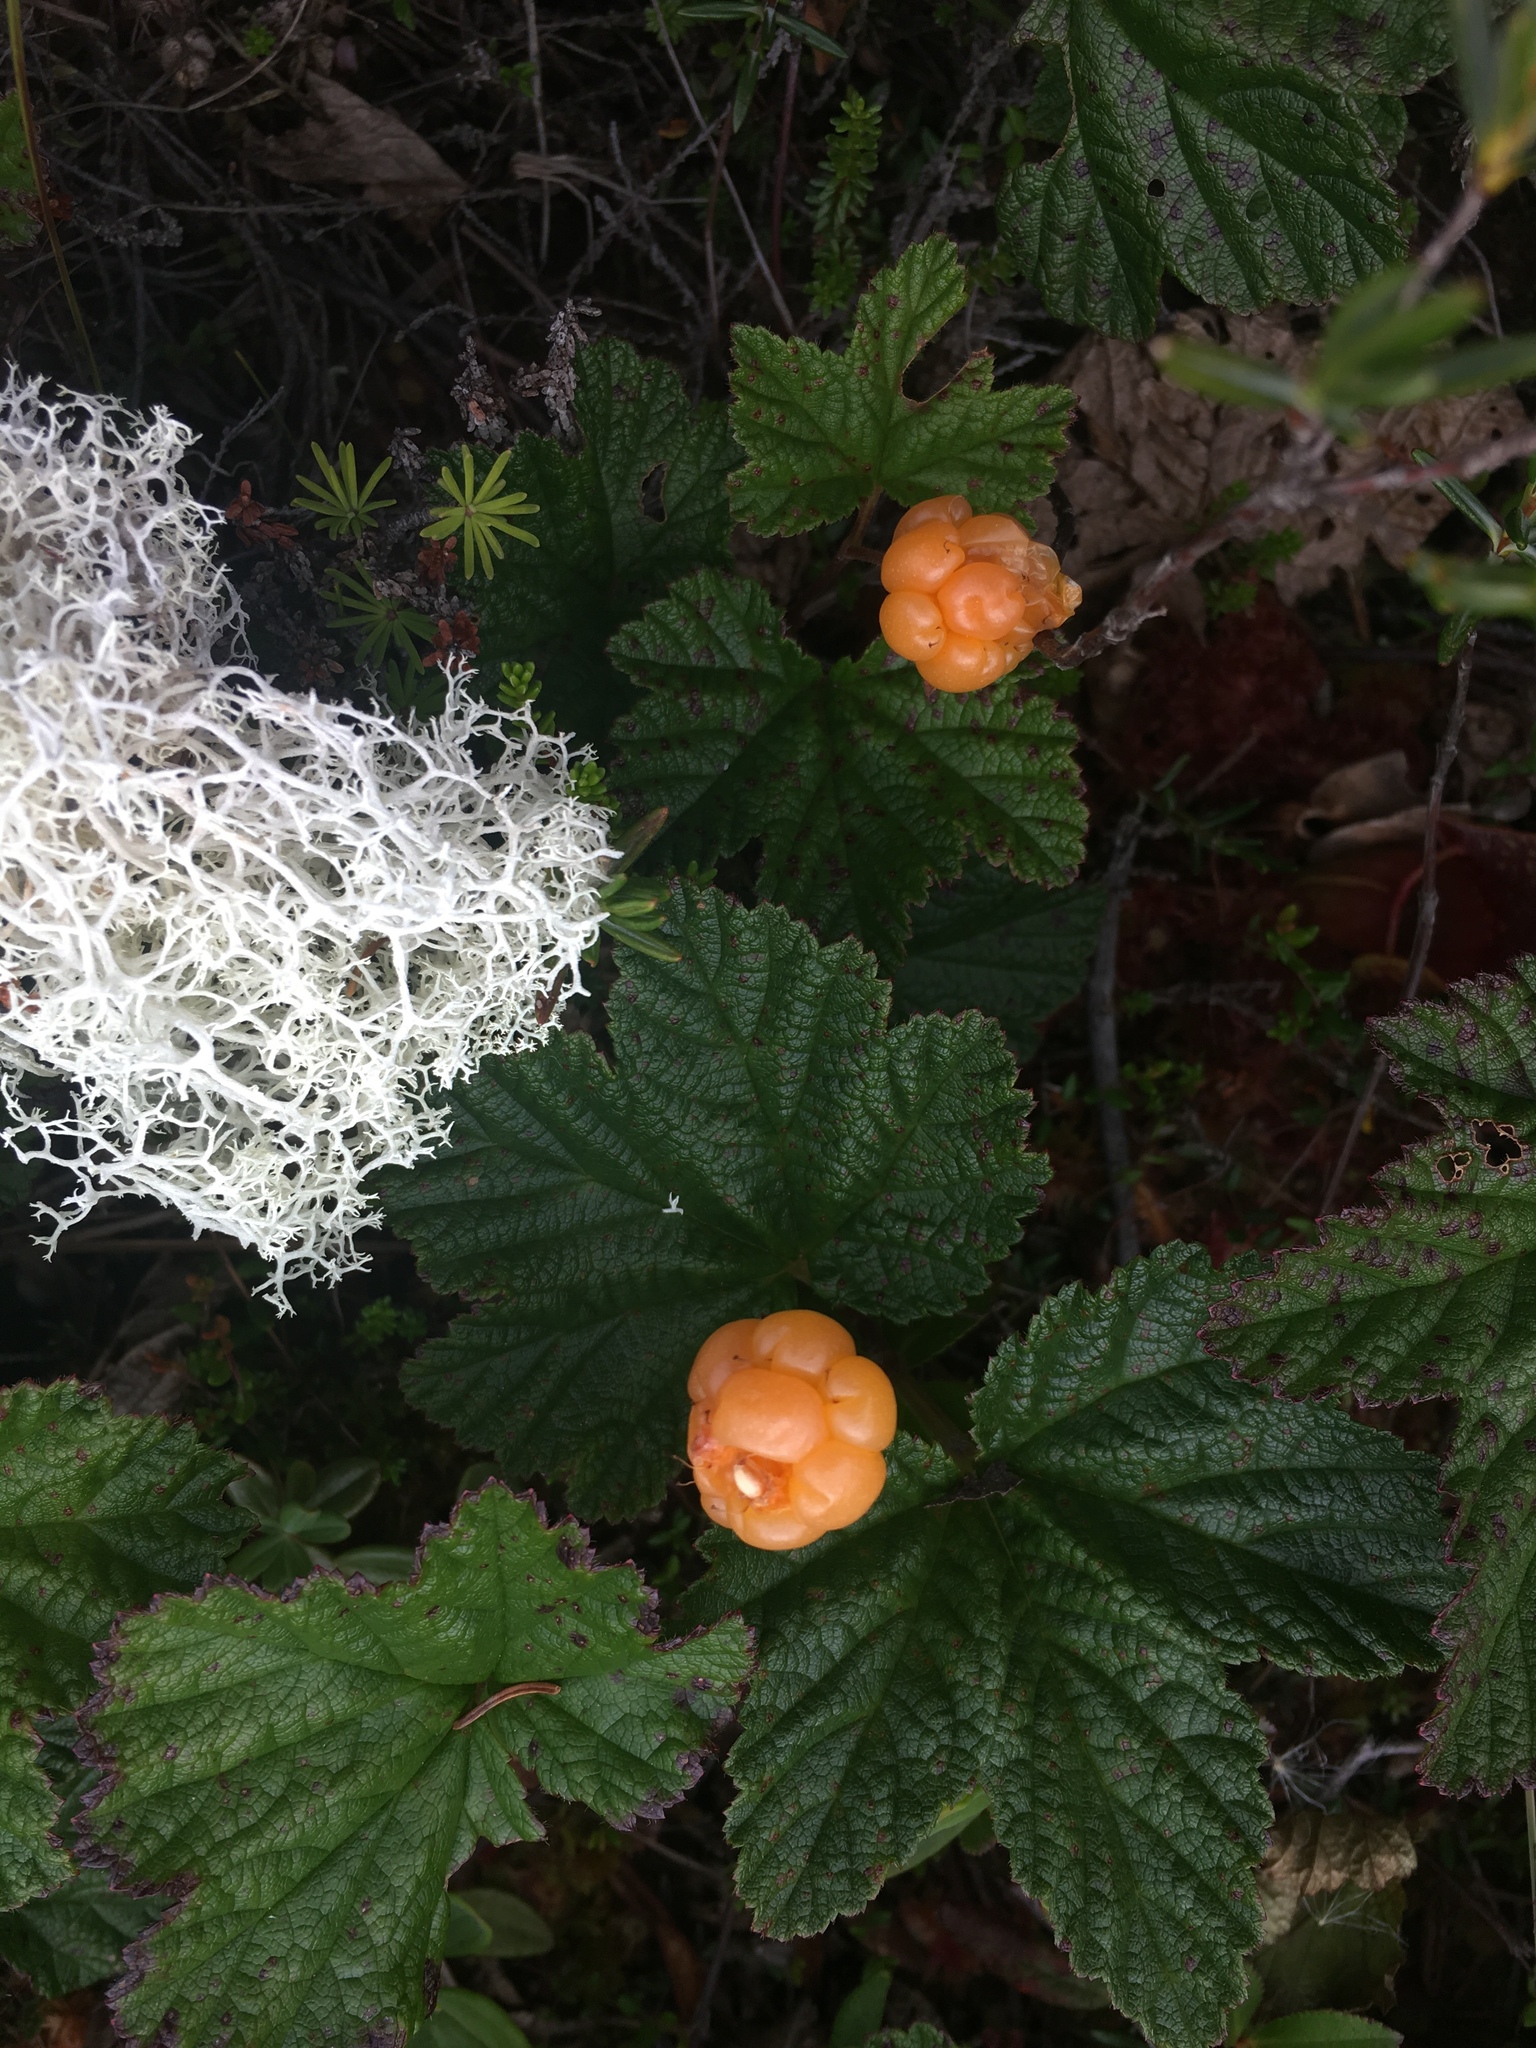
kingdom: Plantae
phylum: Tracheophyta
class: Magnoliopsida
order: Rosales
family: Rosaceae
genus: Rubus
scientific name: Rubus chamaemorus
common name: Cloudberry
